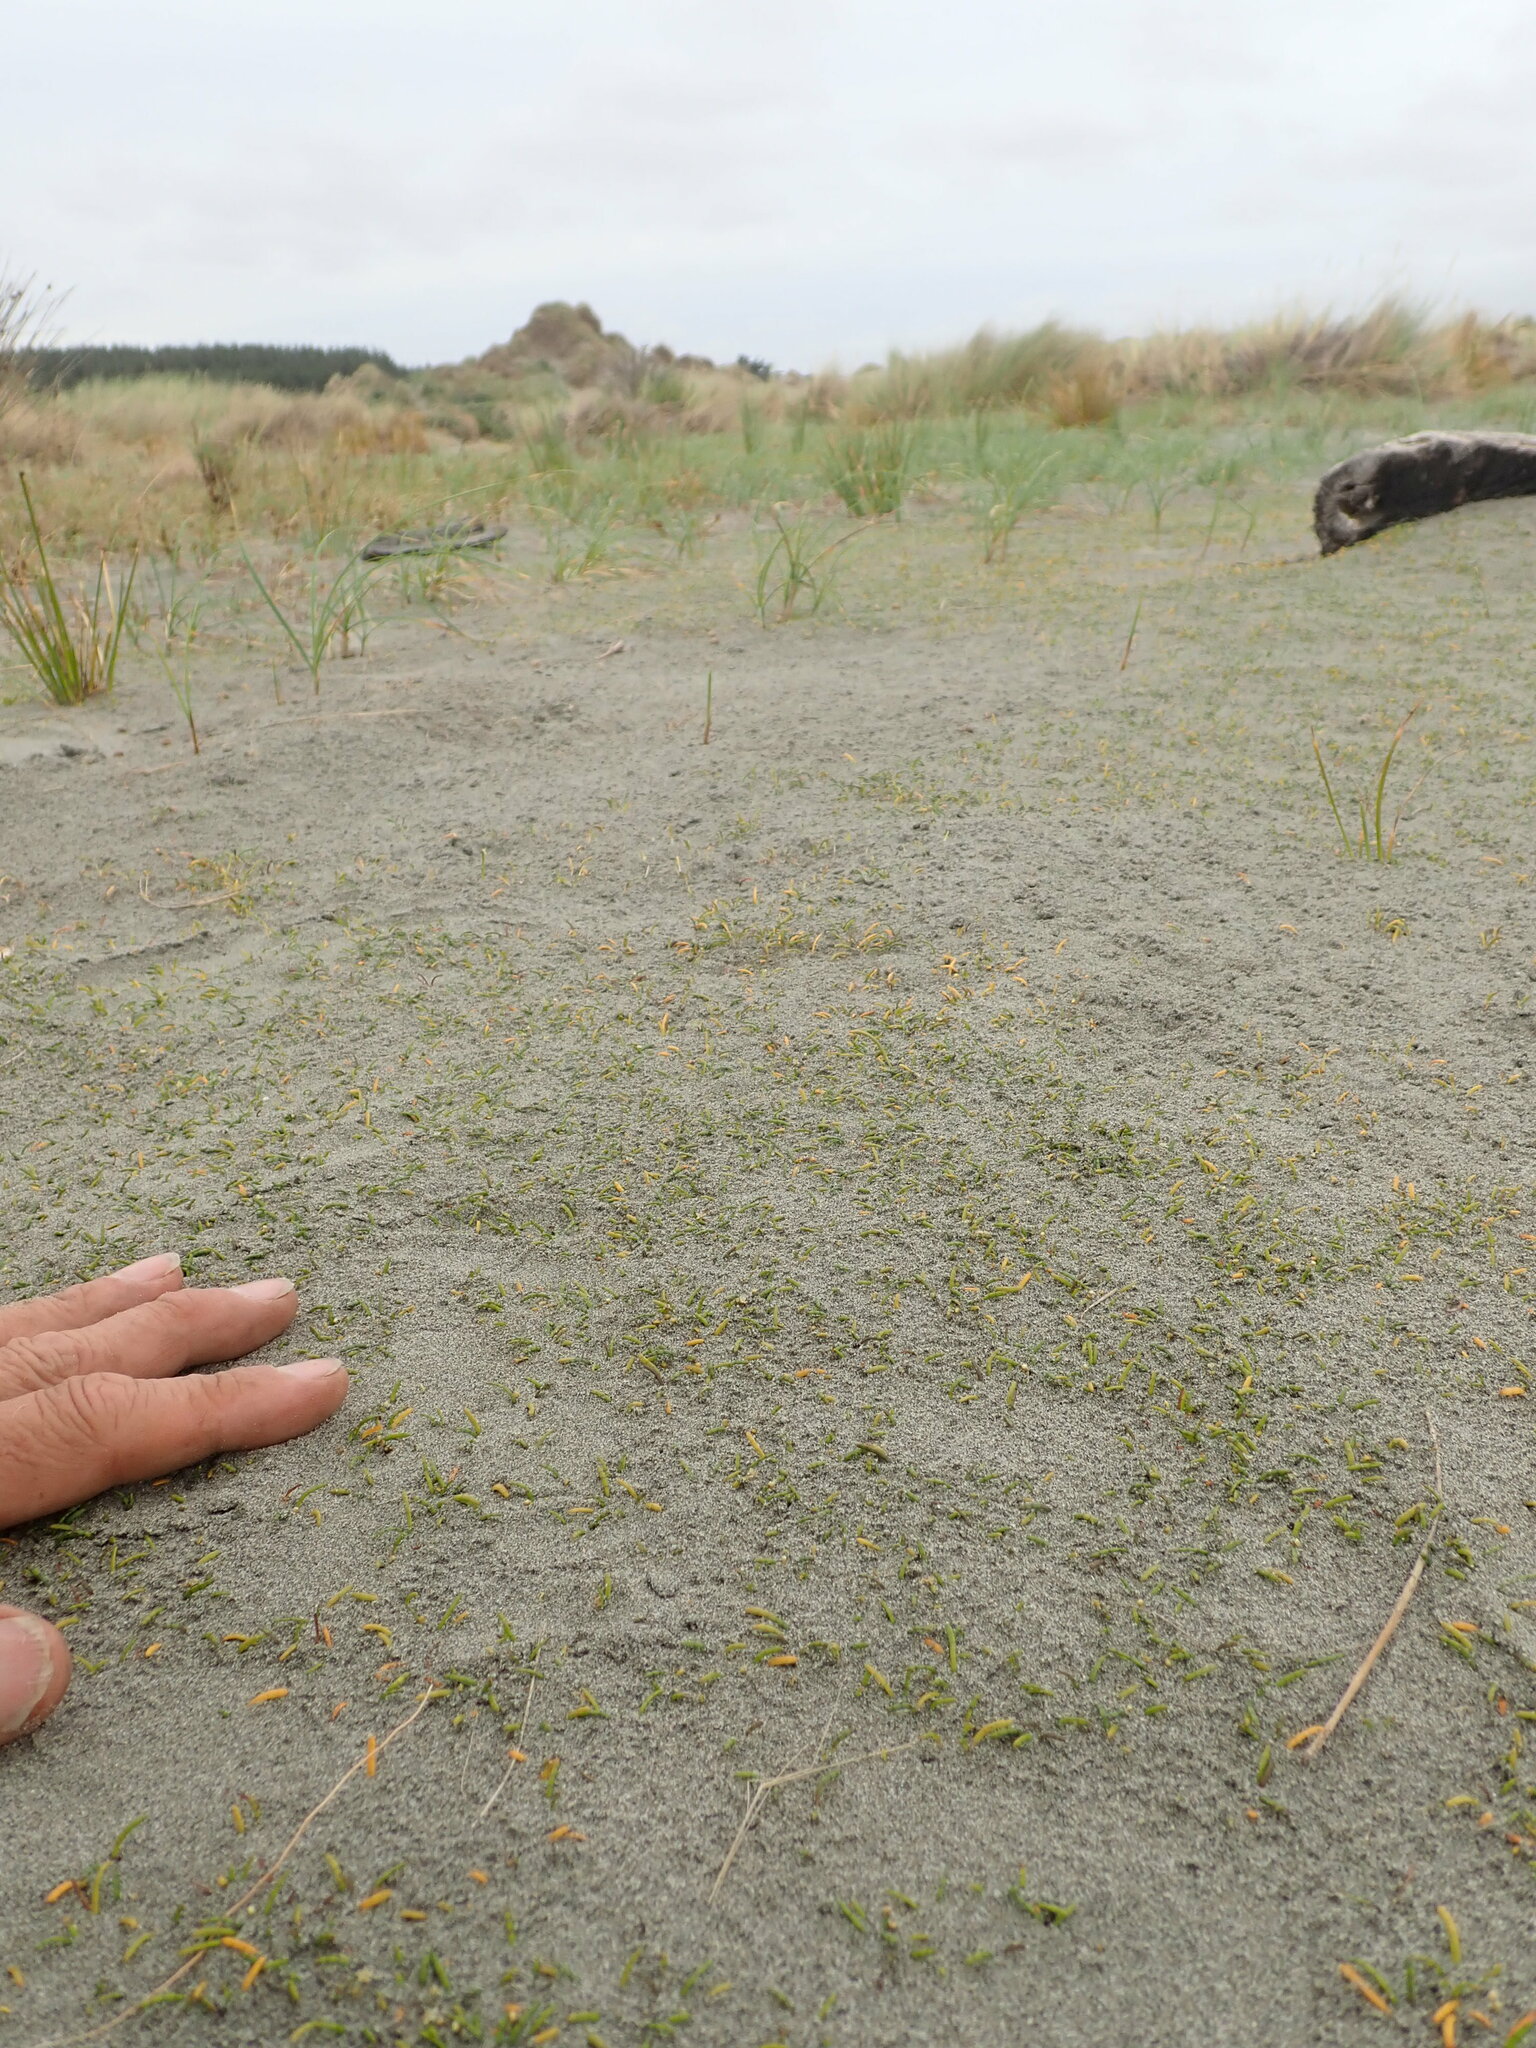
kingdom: Plantae
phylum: Tracheophyta
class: Magnoliopsida
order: Apiales
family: Apiaceae
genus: Lilaeopsis
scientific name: Lilaeopsis novae-zelandiae
